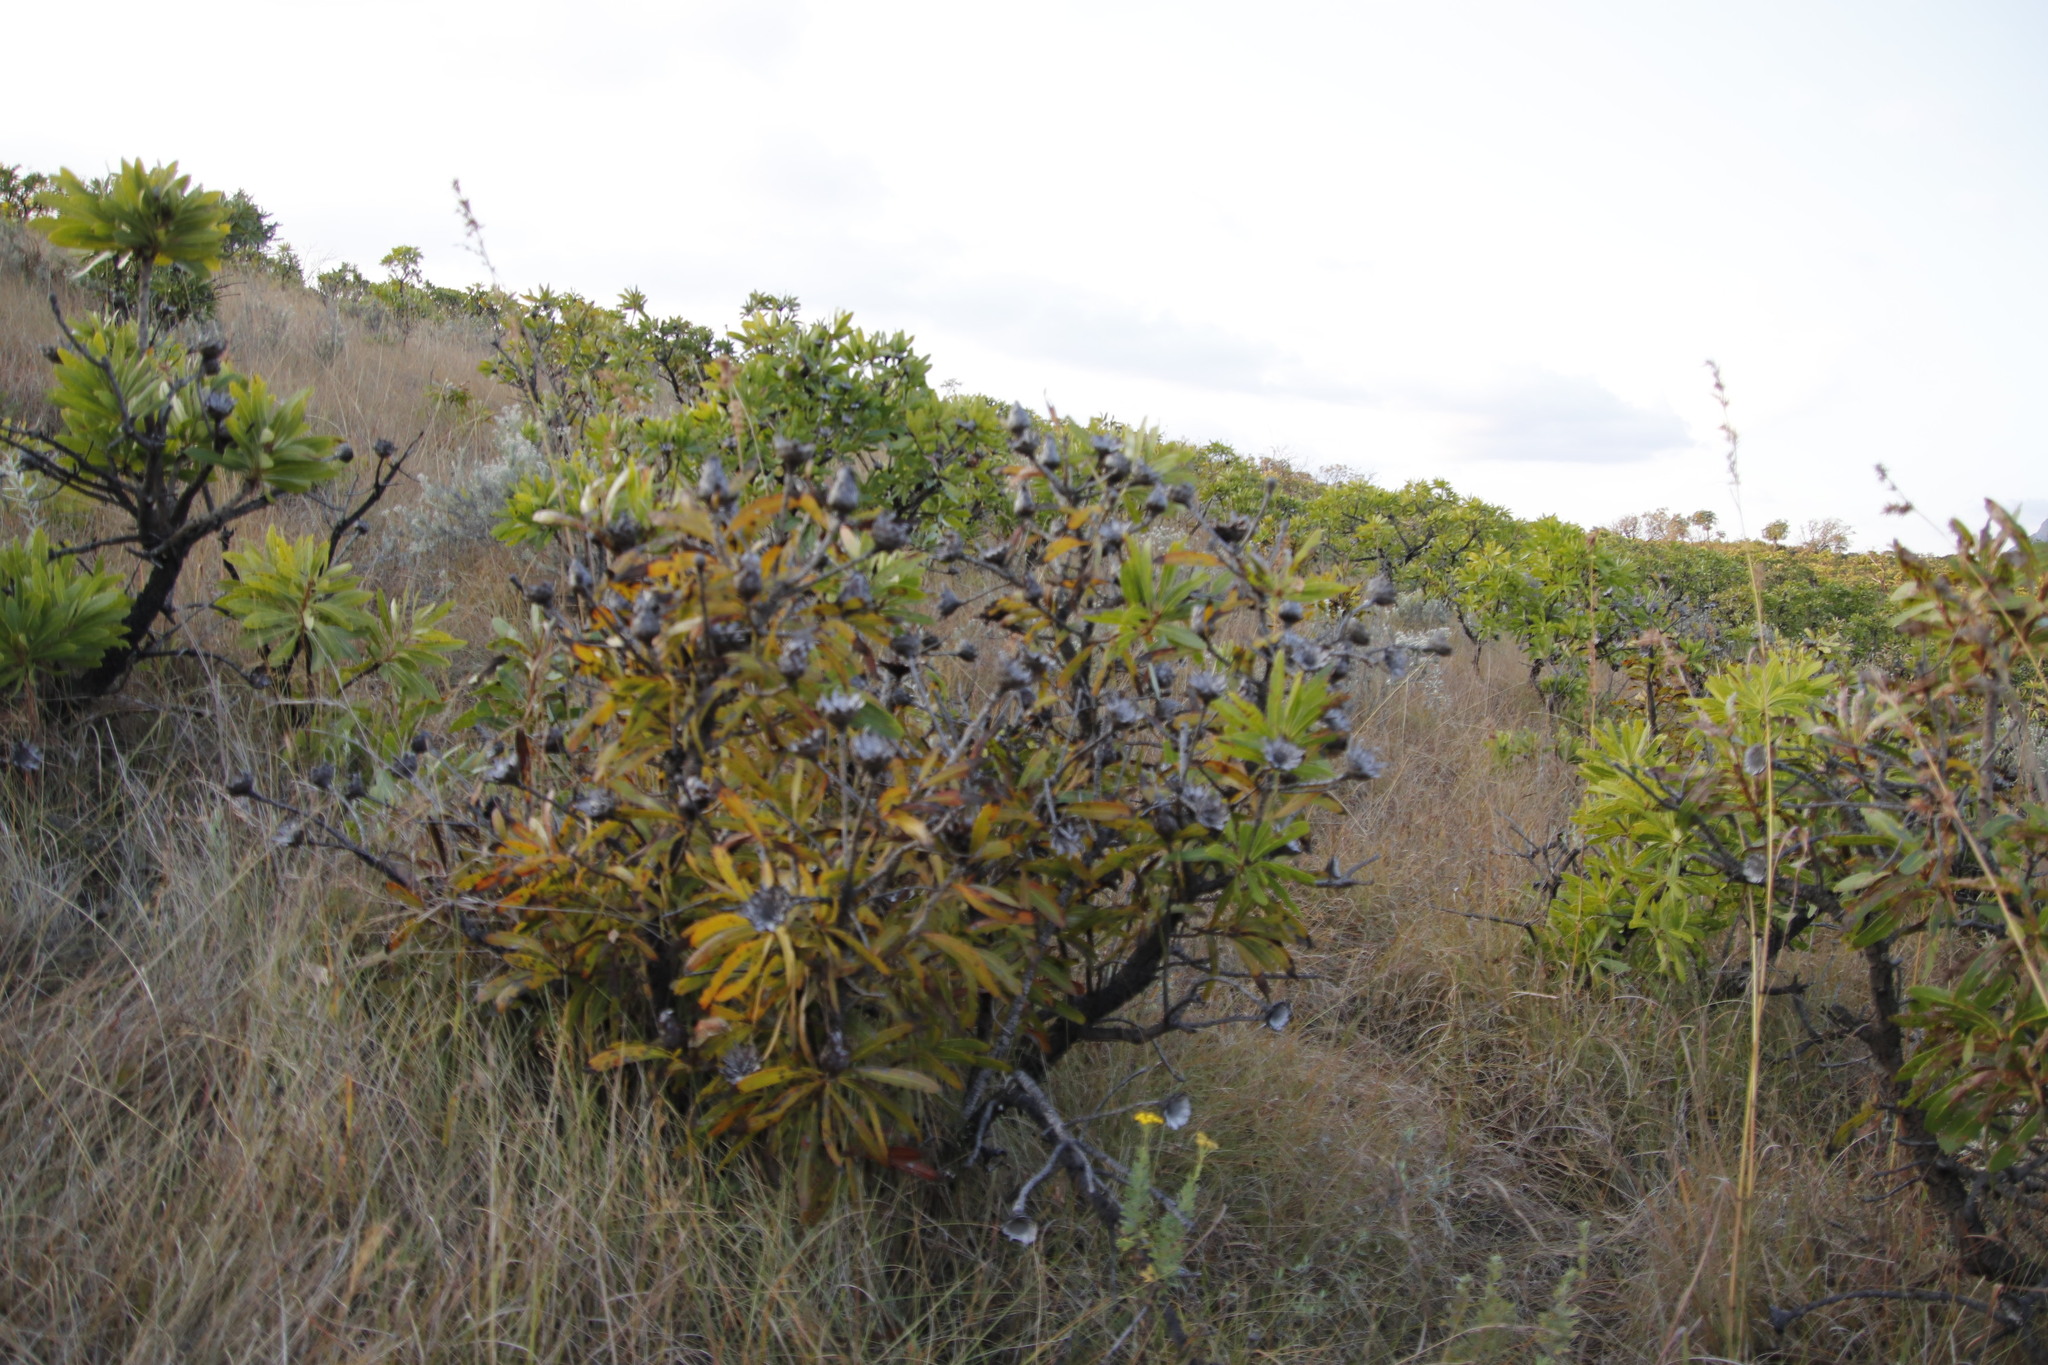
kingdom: Plantae
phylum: Tracheophyta
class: Magnoliopsida
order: Proteales
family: Proteaceae
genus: Protea
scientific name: Protea rubropilosa
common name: Escarpment sugarbush
